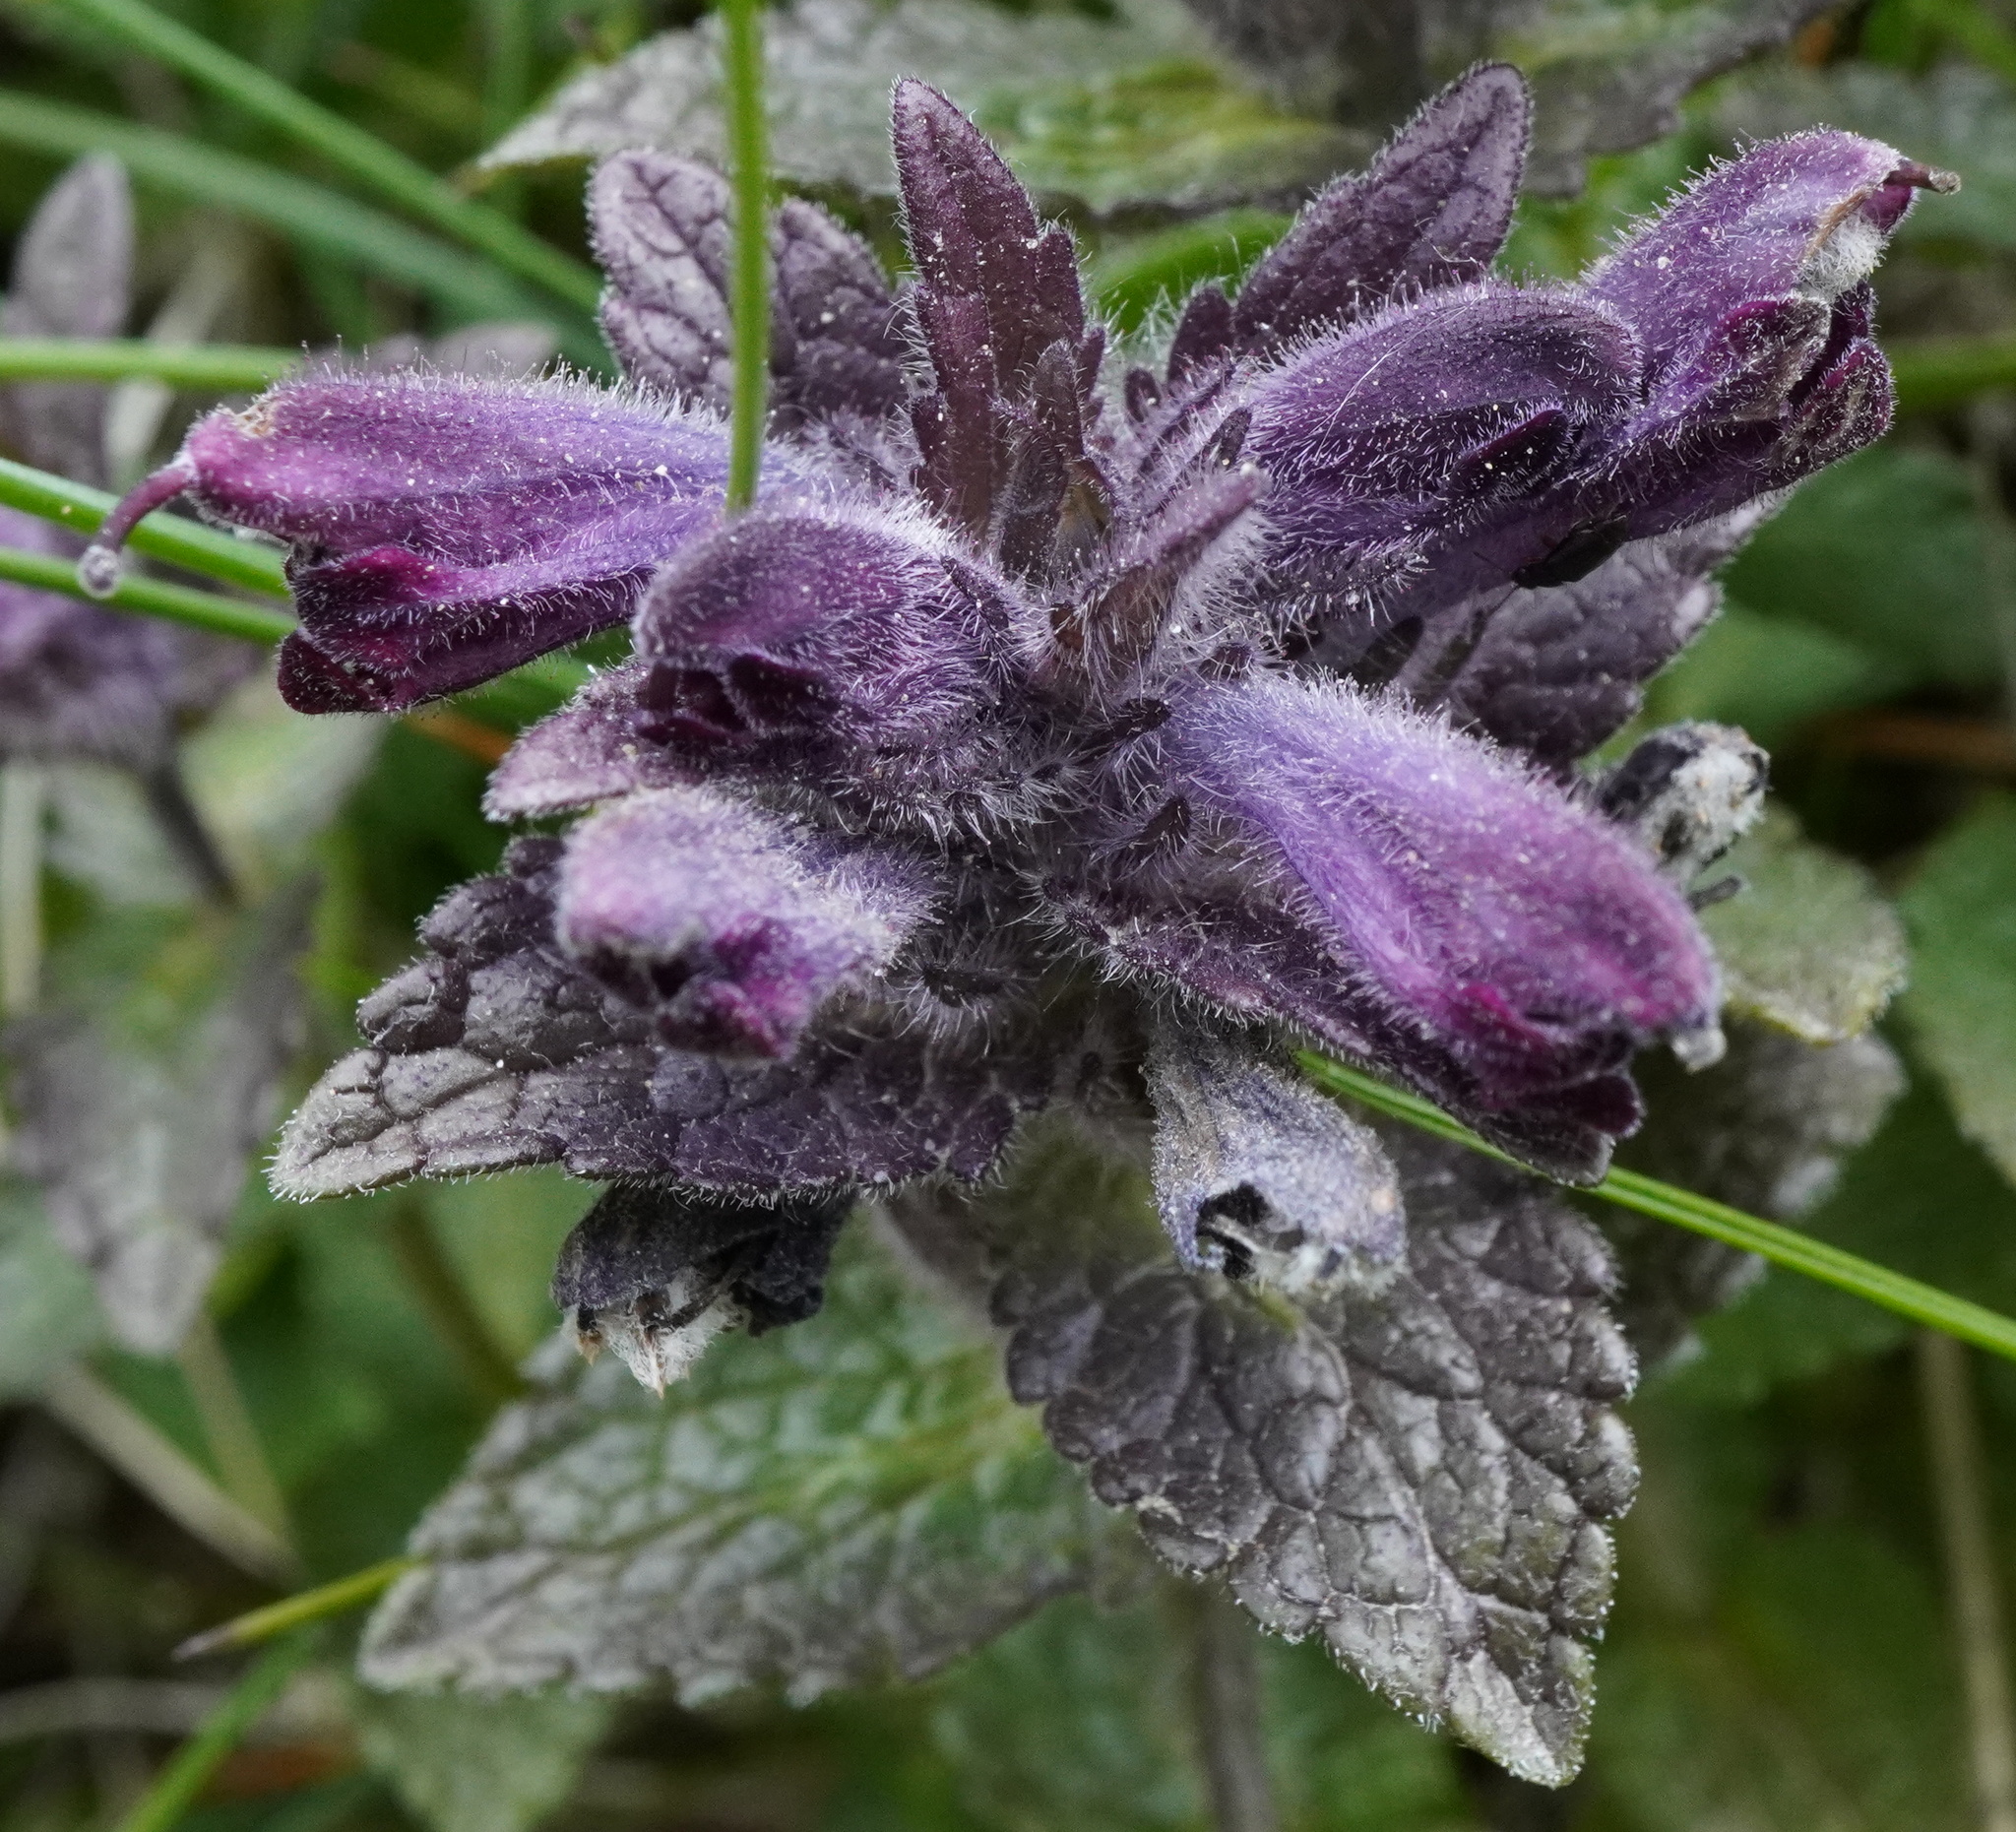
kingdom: Plantae
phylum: Tracheophyta
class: Magnoliopsida
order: Lamiales
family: Orobanchaceae
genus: Bartsia
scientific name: Bartsia alpina
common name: Alpine bartsia
